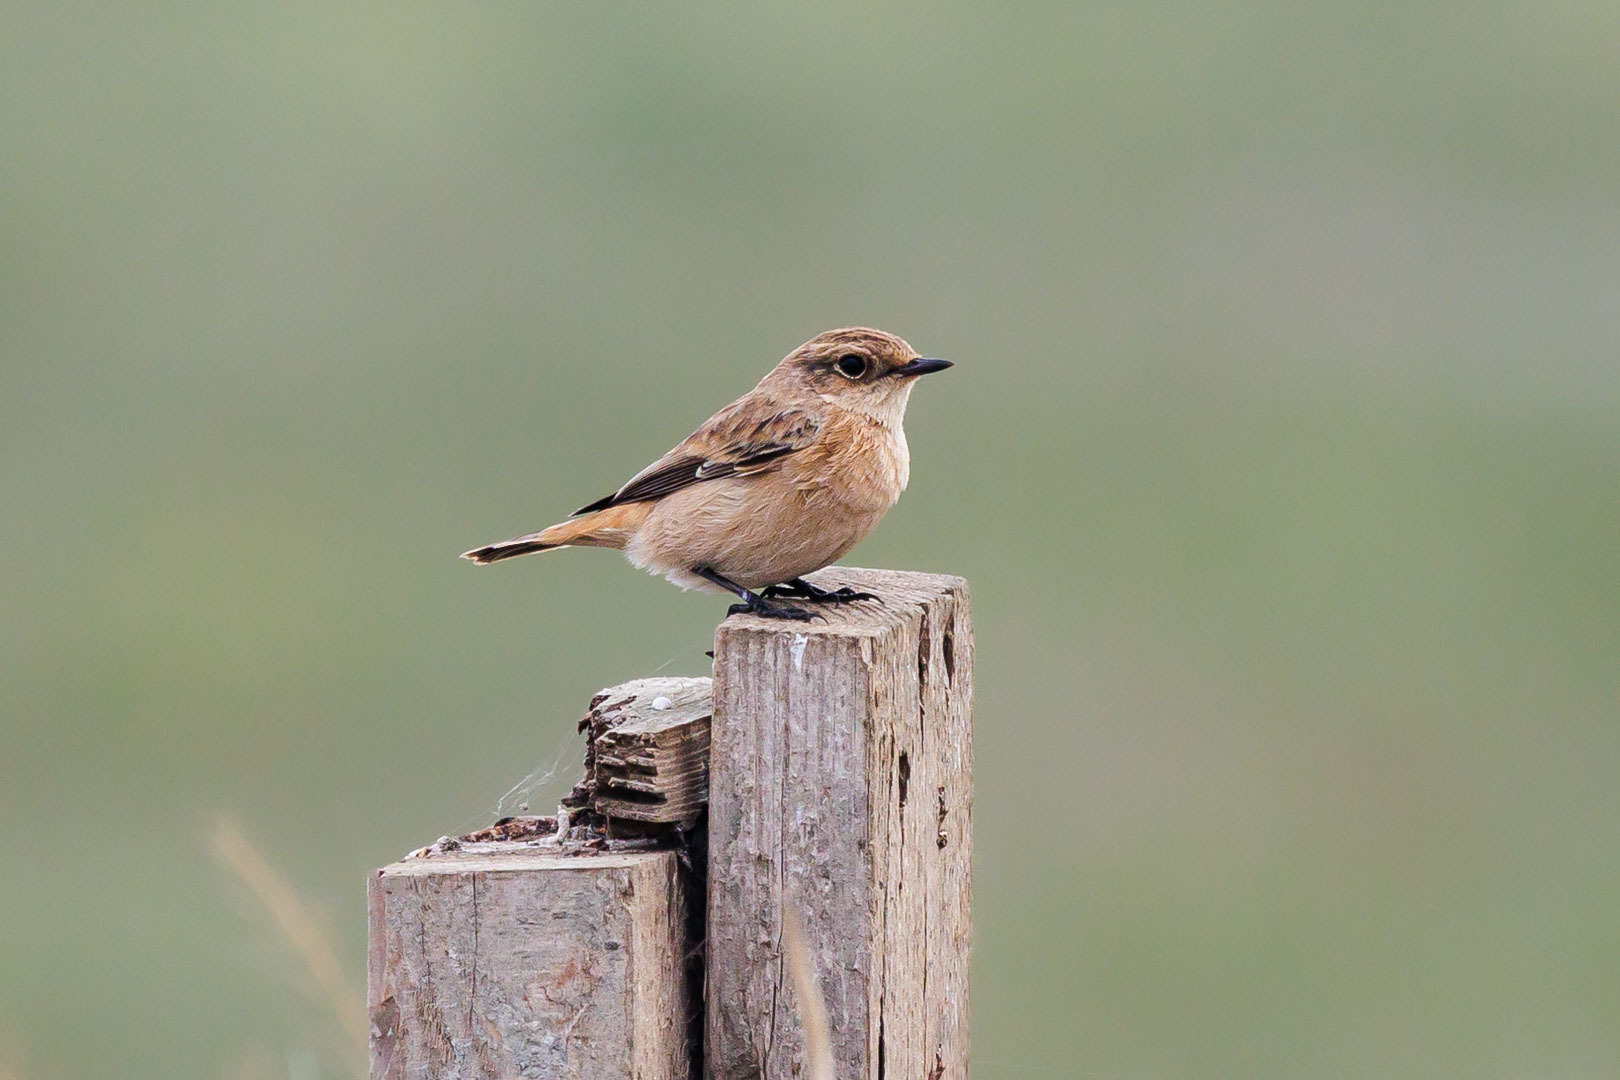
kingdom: Animalia
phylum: Chordata
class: Aves
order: Passeriformes
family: Muscicapidae
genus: Saxicola
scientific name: Saxicola maurus
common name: Siberian stonechat
